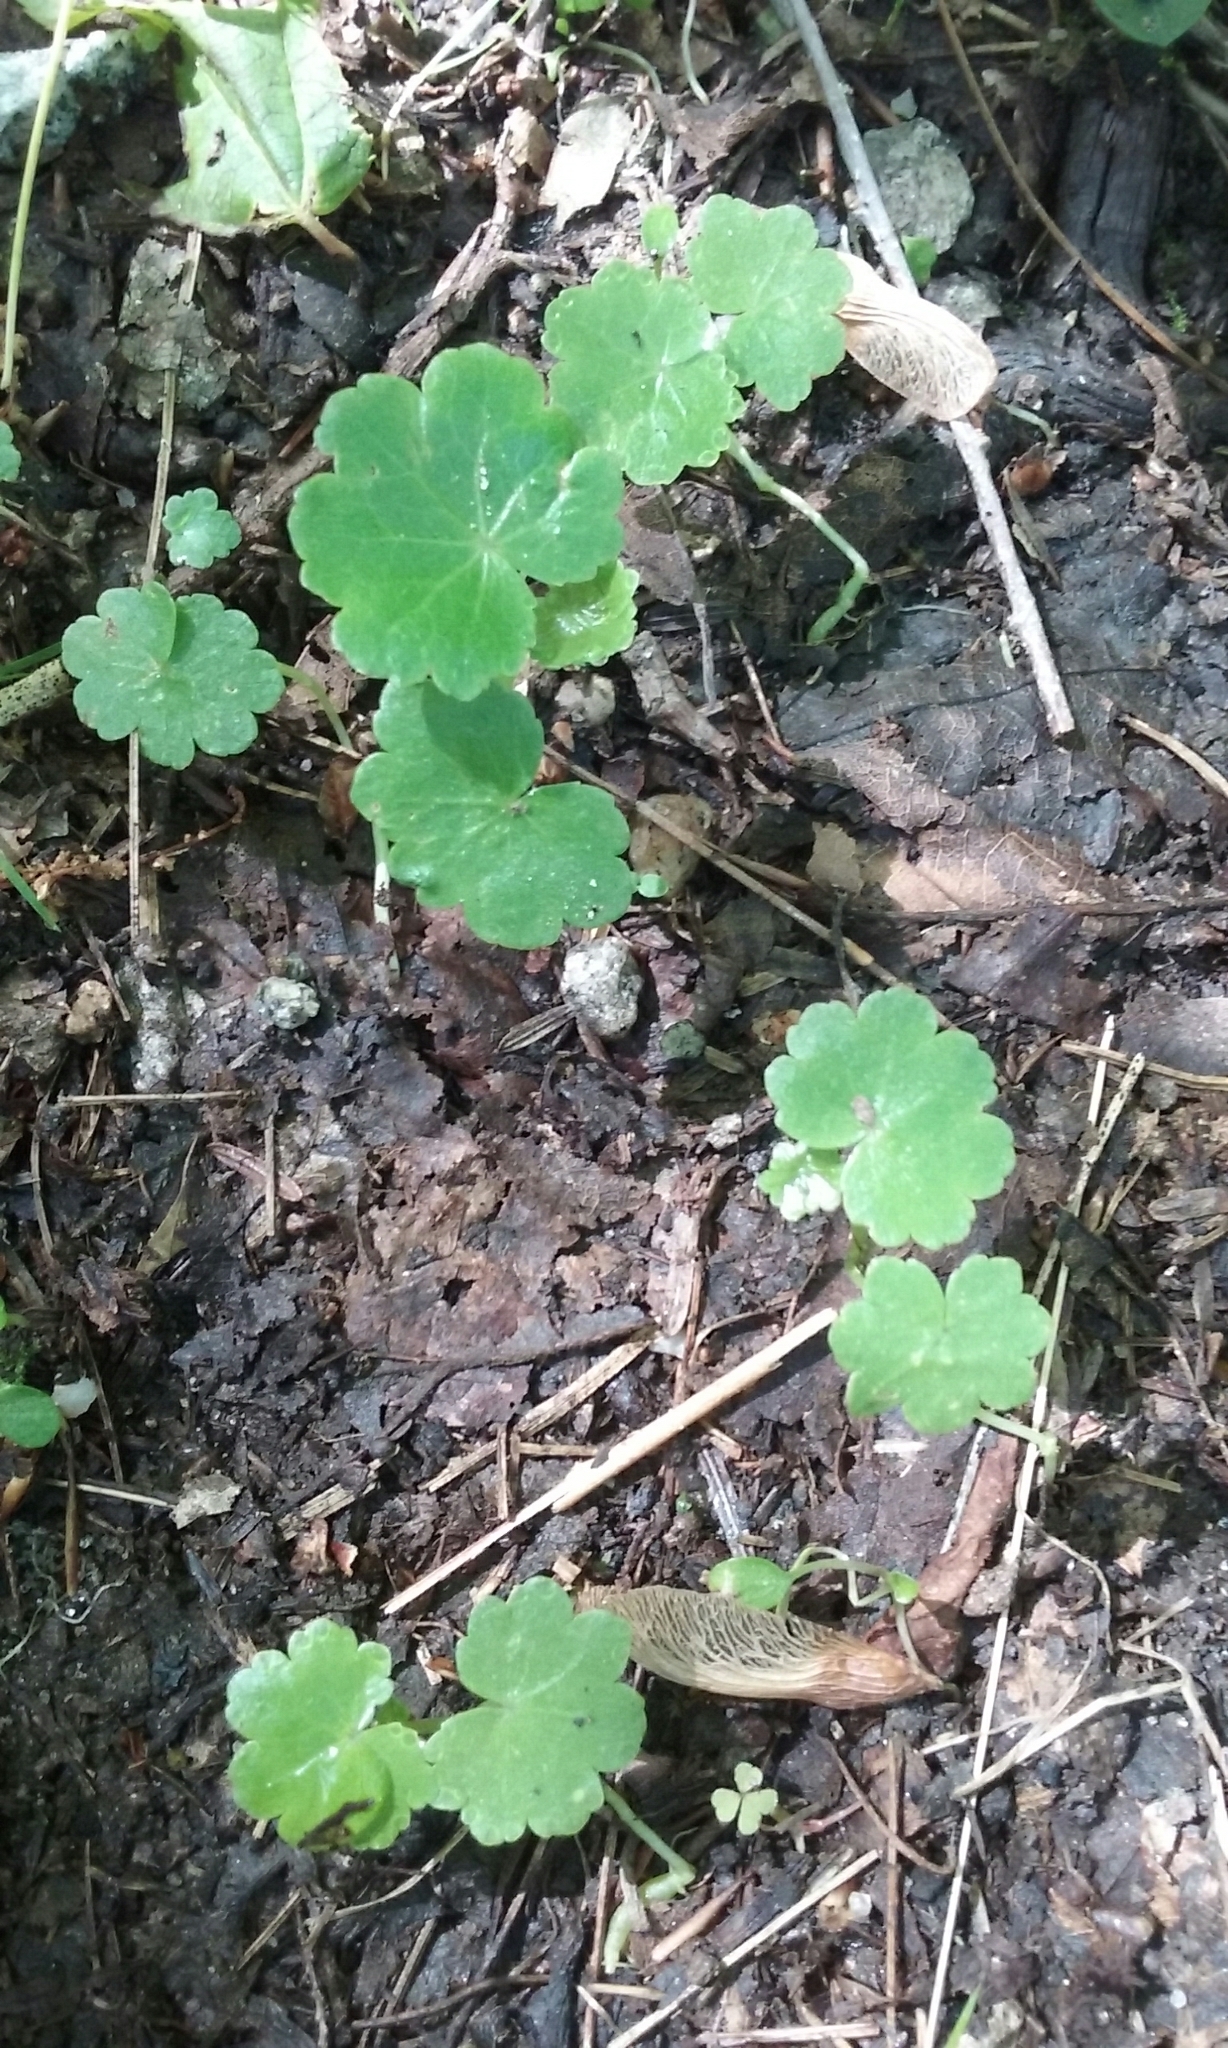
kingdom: Plantae
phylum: Tracheophyta
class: Magnoliopsida
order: Apiales
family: Araliaceae
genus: Hydrocotyle
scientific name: Hydrocotyle americana
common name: American water-pennywort
